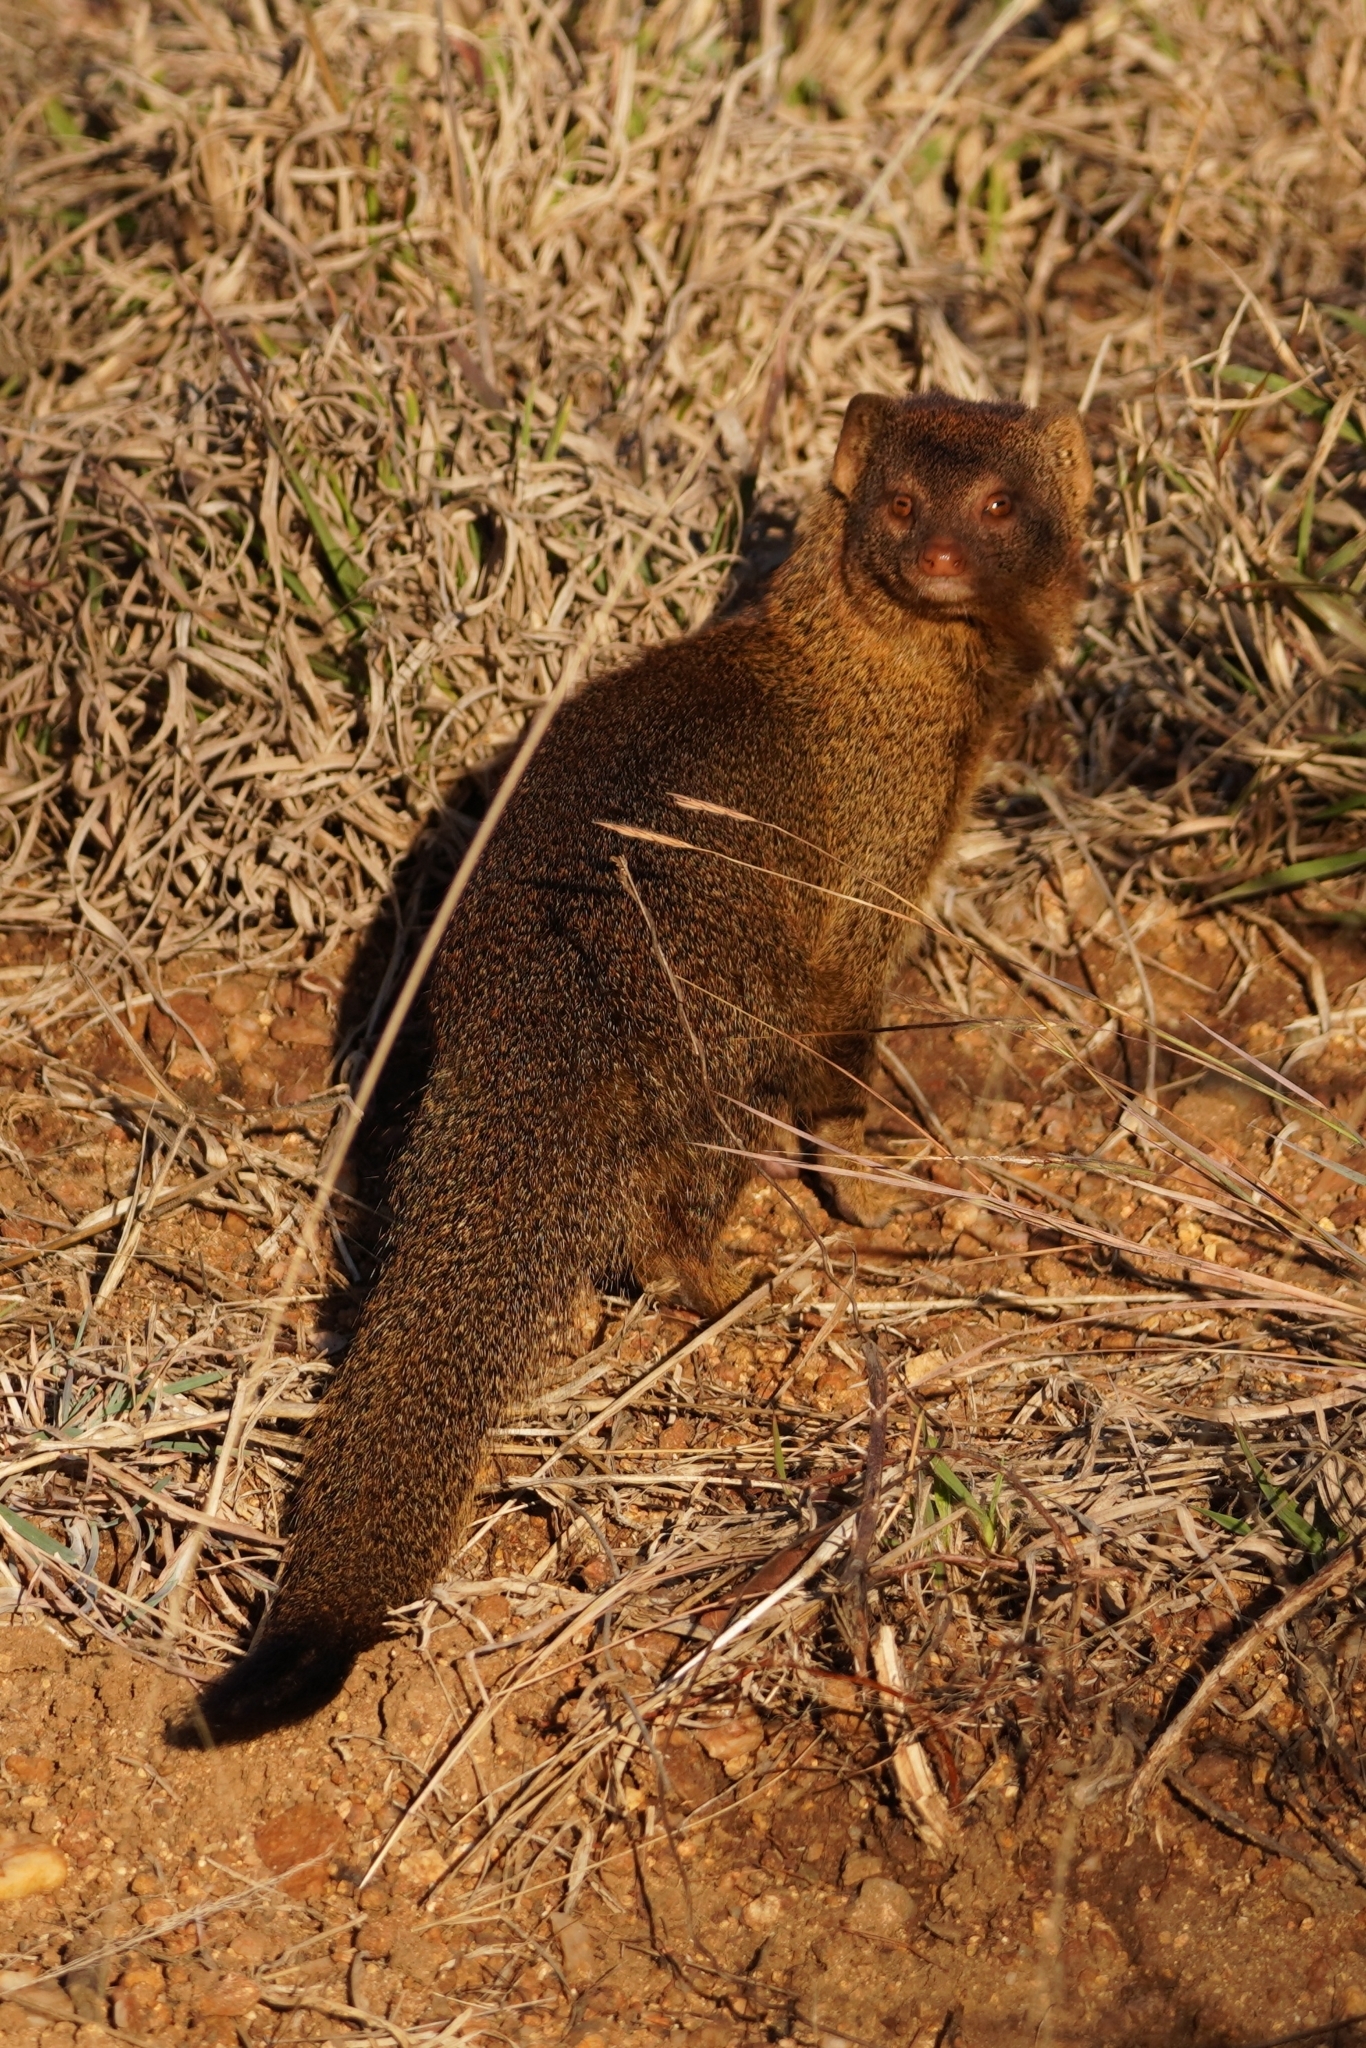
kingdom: Animalia
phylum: Chordata
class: Mammalia
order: Carnivora
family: Herpestidae
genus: Galerella
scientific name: Galerella sanguinea
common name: Slender mongoose
